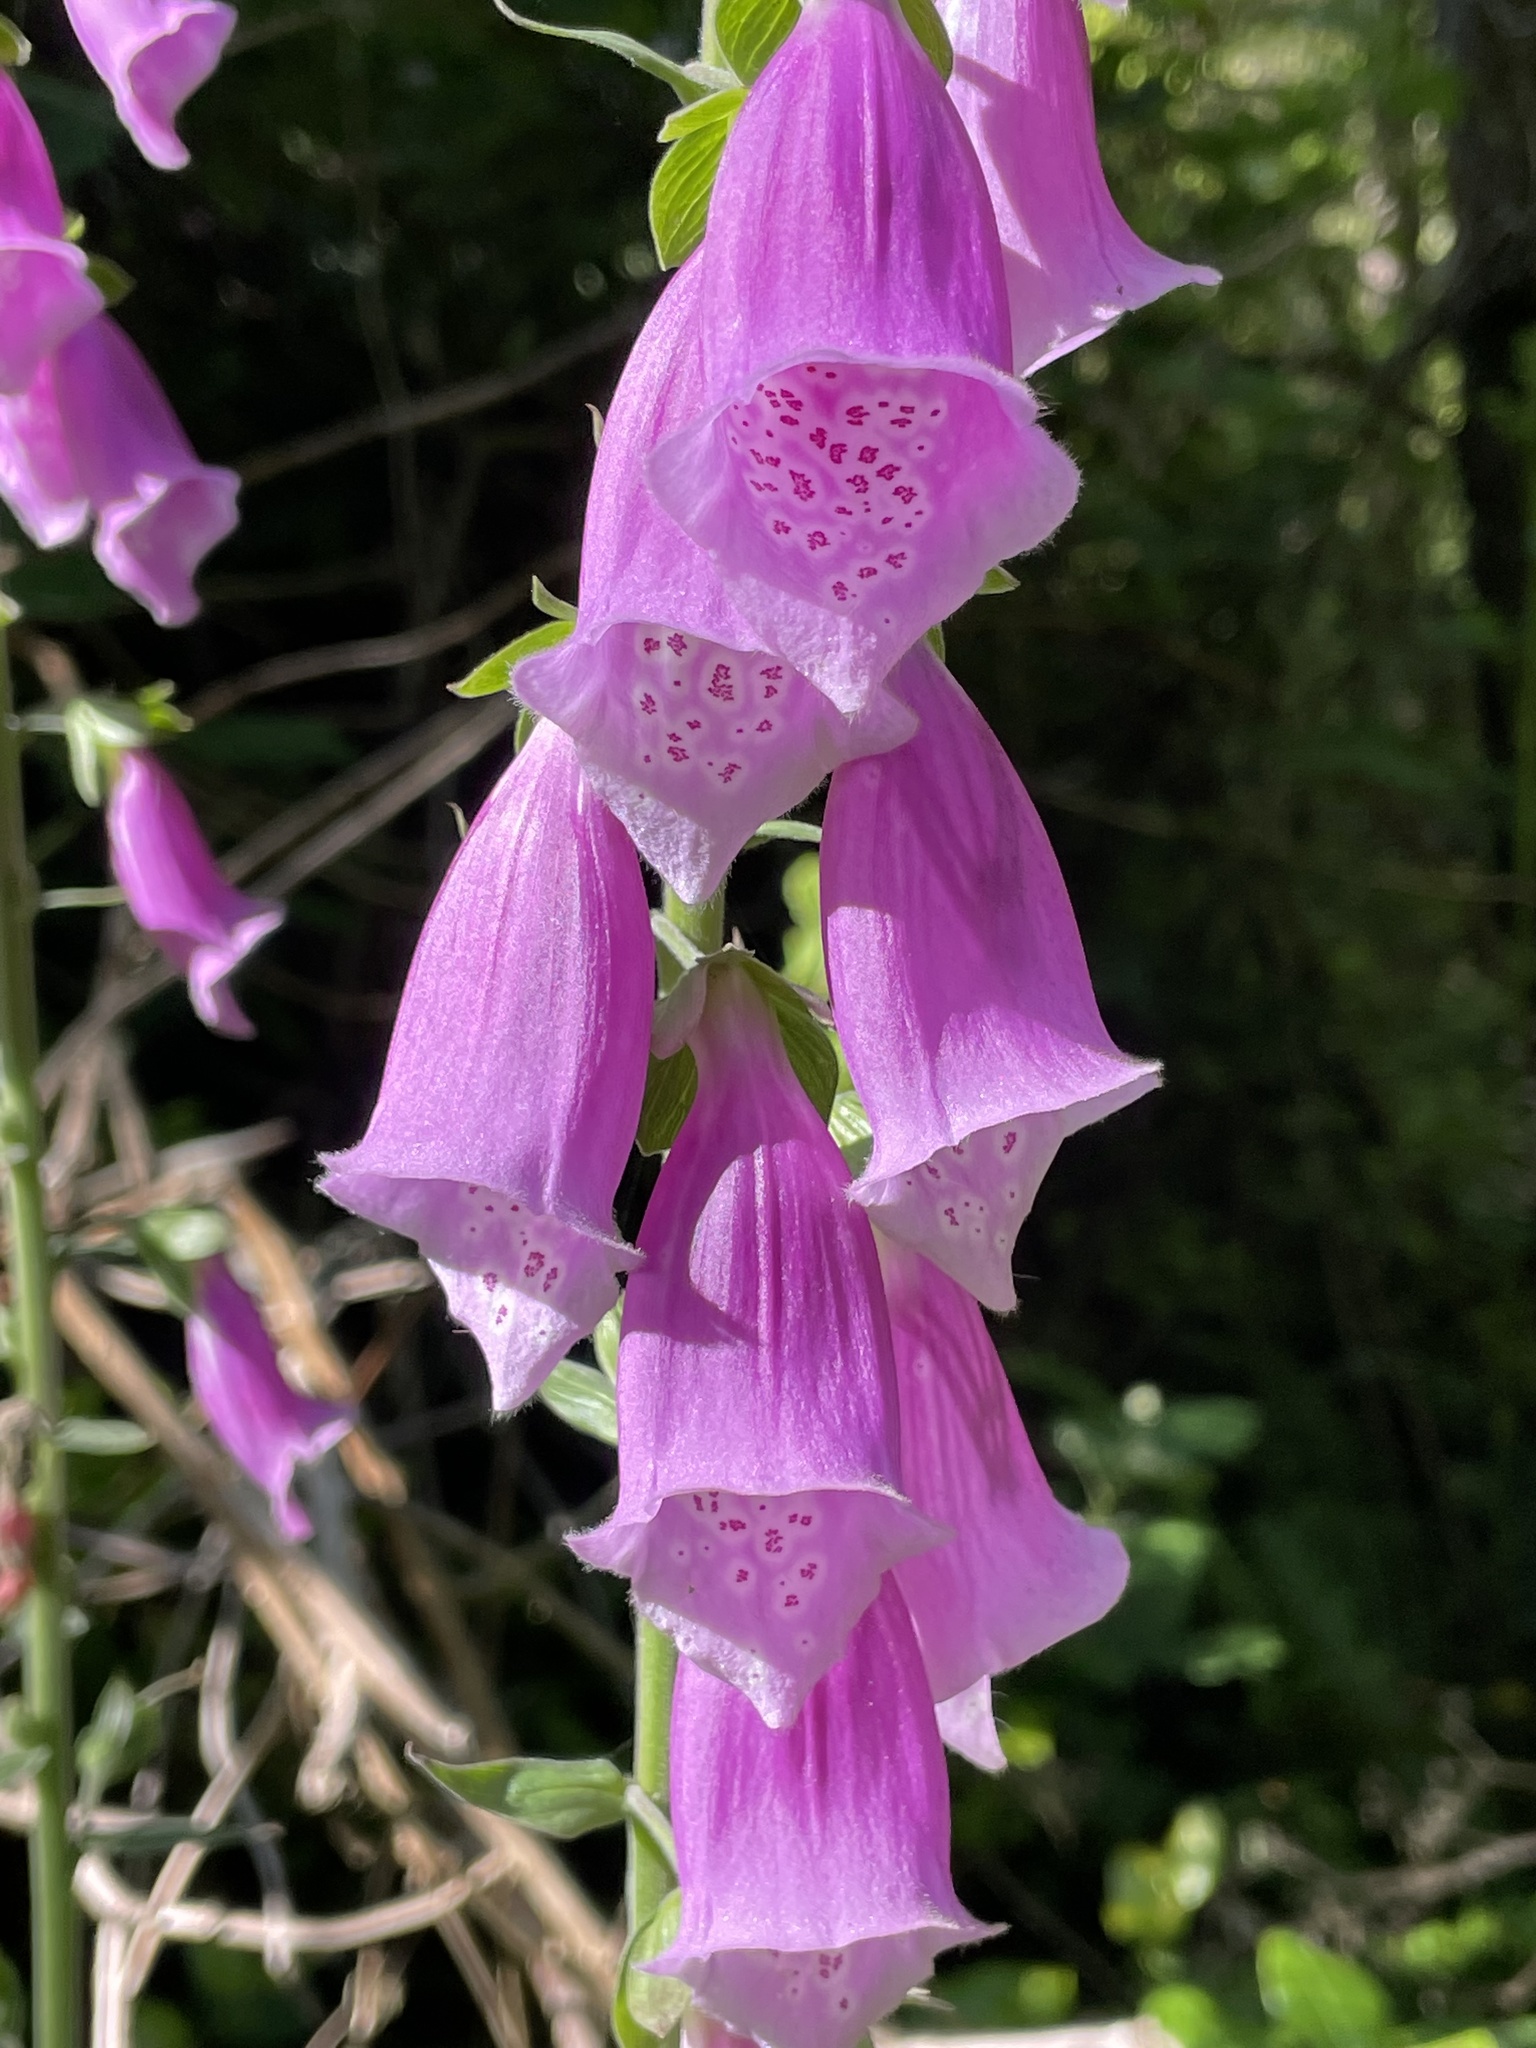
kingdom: Plantae
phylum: Tracheophyta
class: Magnoliopsida
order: Lamiales
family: Plantaginaceae
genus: Digitalis
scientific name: Digitalis purpurea
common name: Foxglove
